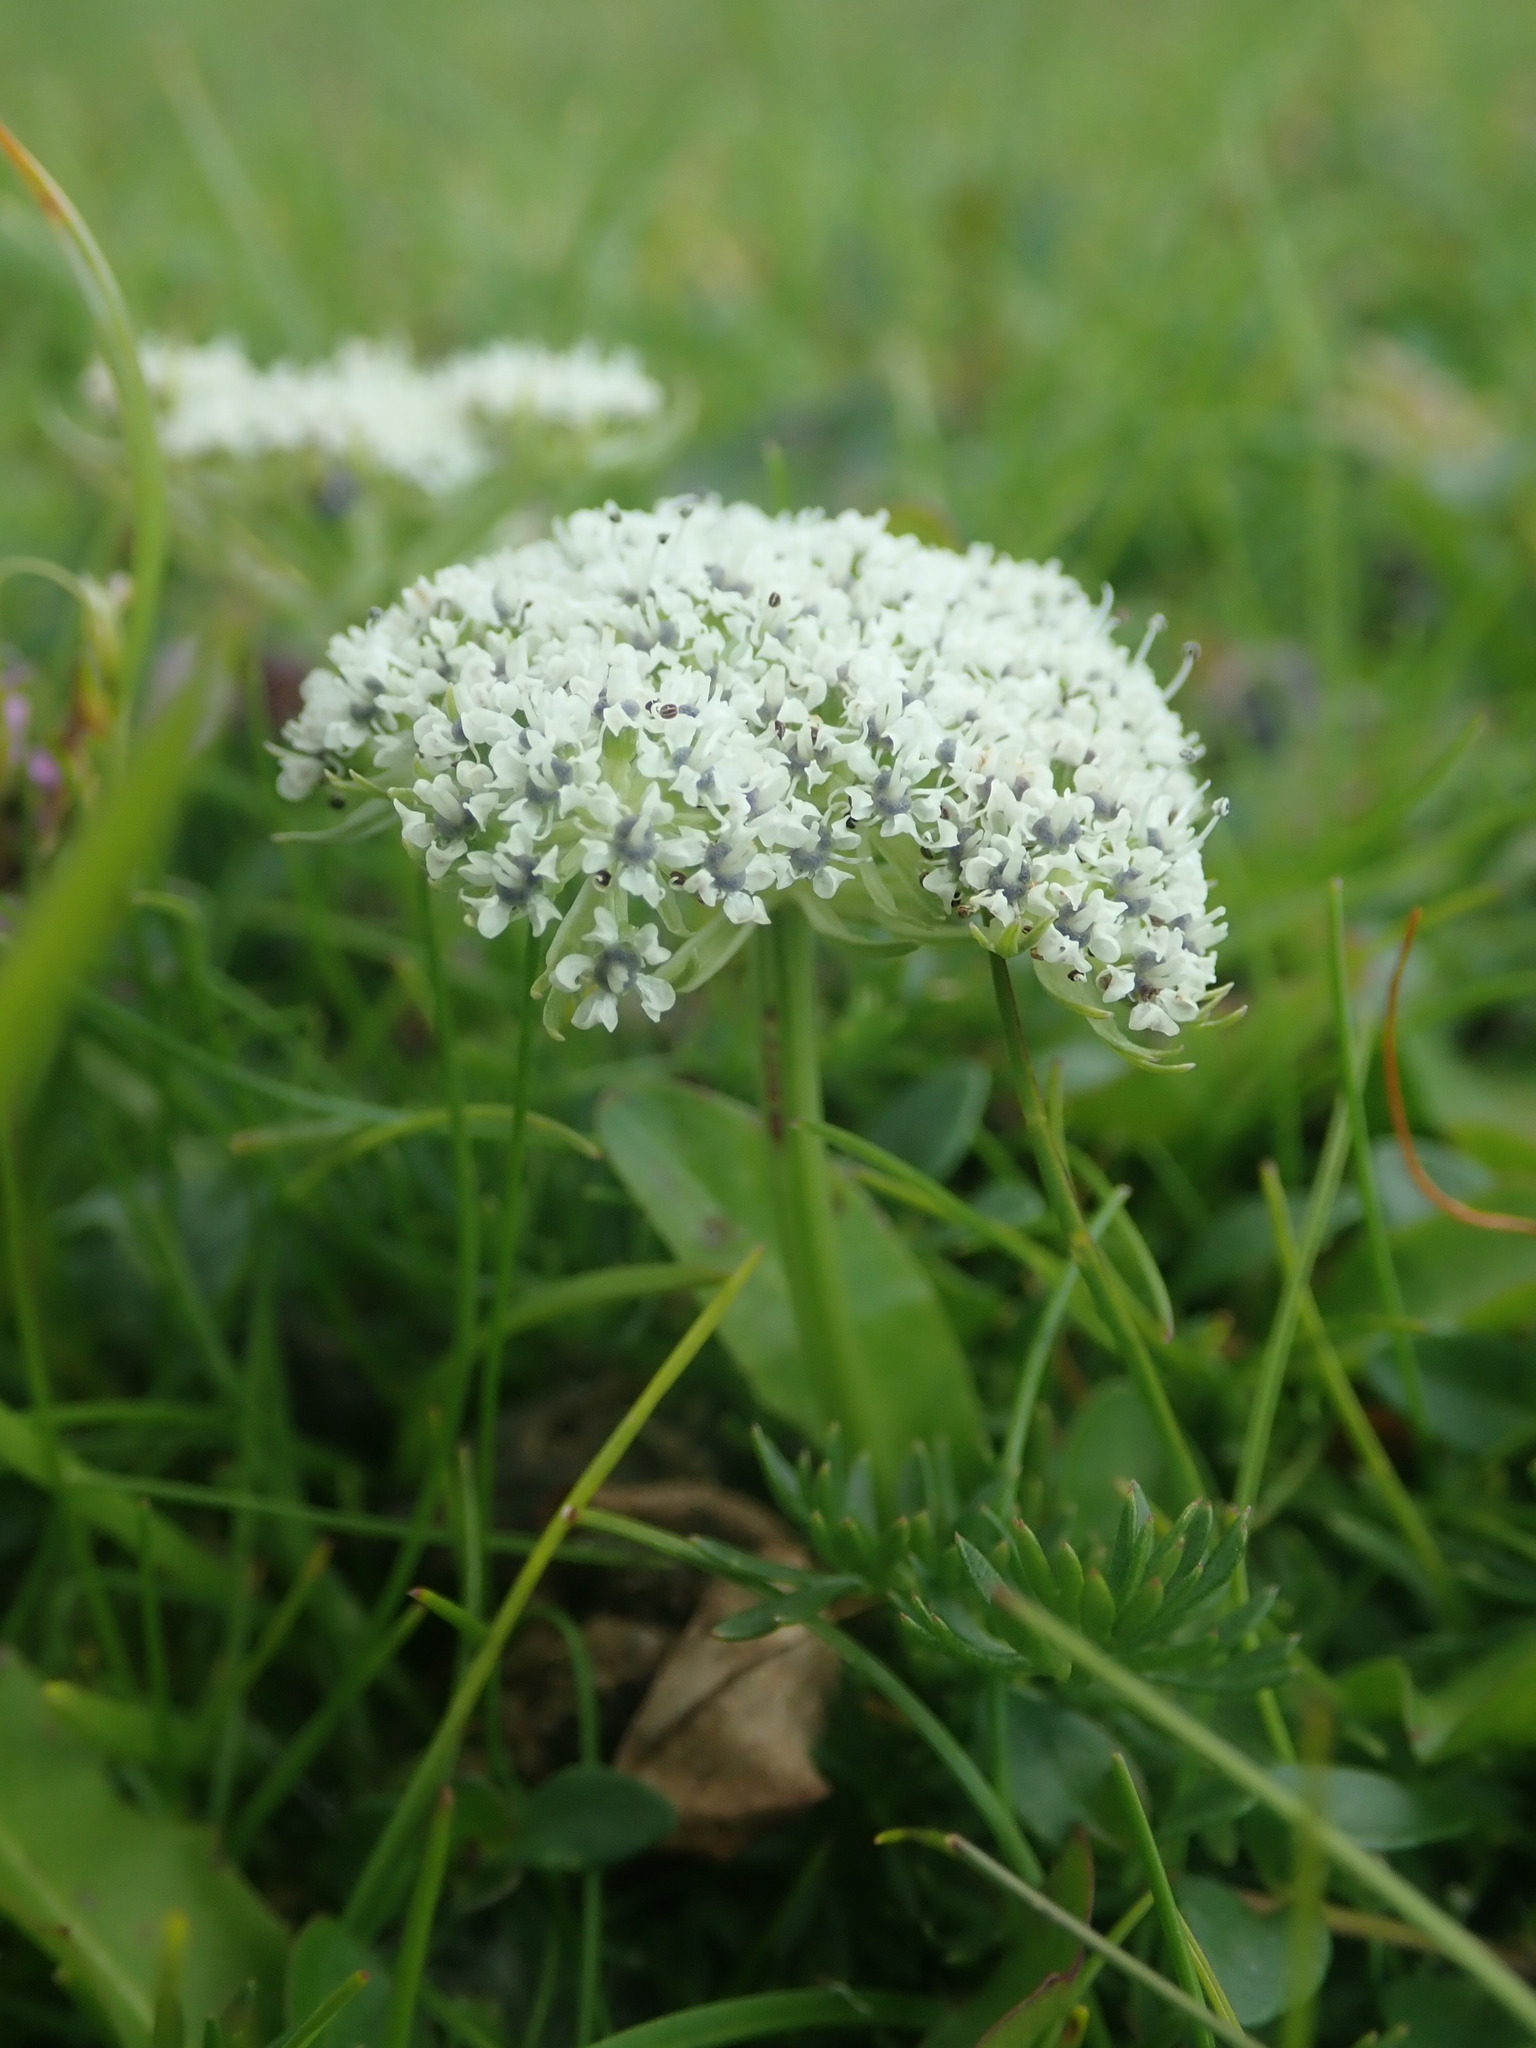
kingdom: Plantae
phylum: Tracheophyta
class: Magnoliopsida
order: Apiales
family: Apiaceae
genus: Pachypleurum
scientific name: Pachypleurum mutellinoides
